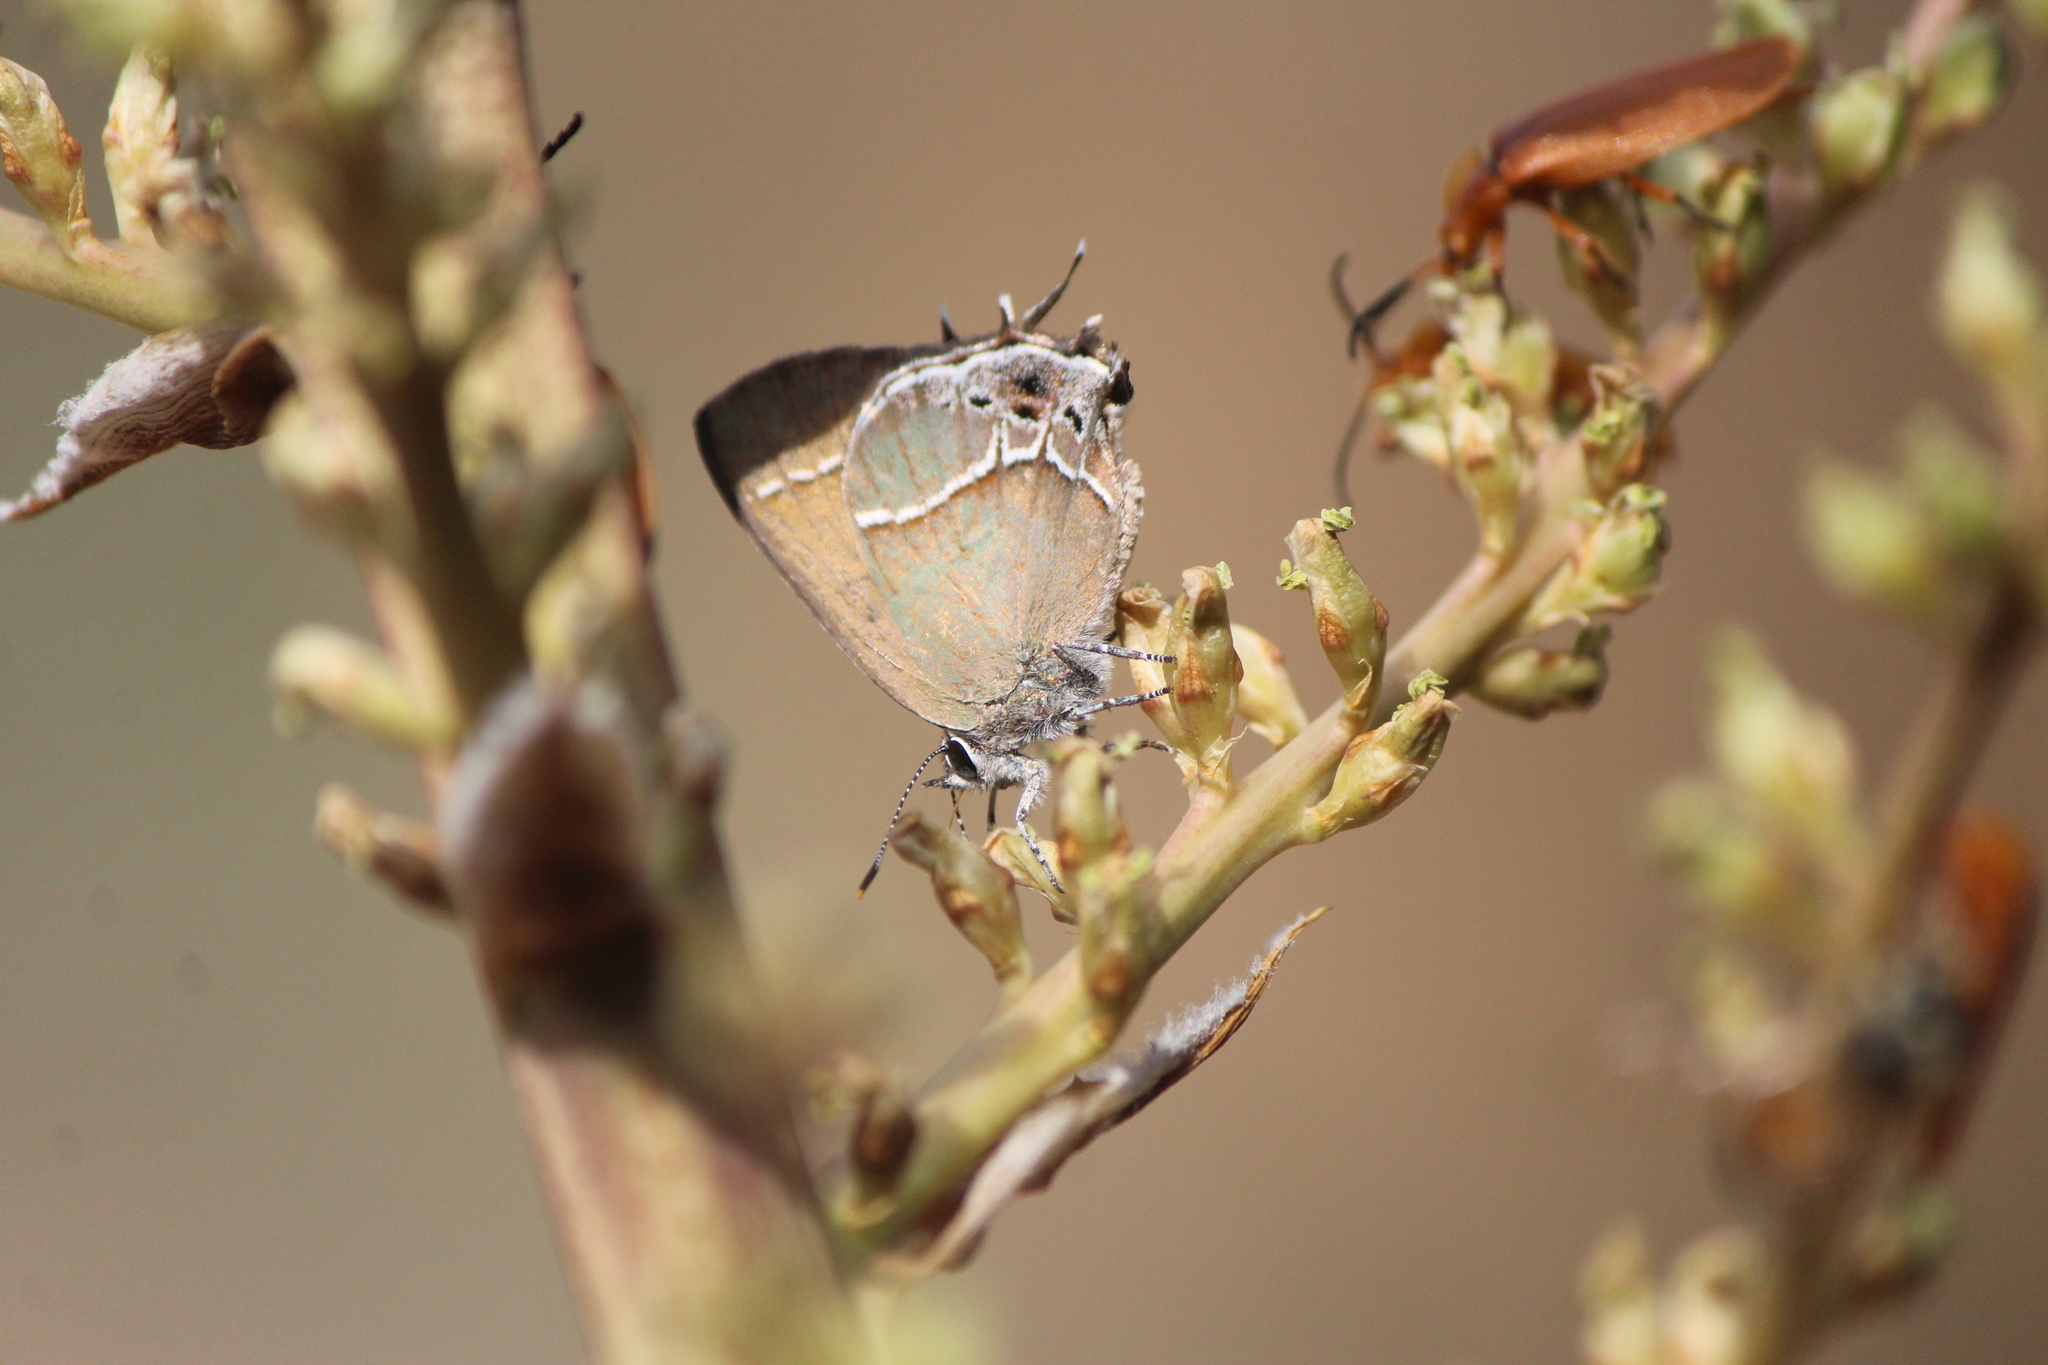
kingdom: Animalia
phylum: Arthropoda
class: Insecta
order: Lepidoptera
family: Lycaenidae
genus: Xamia
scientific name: Xamia xami
